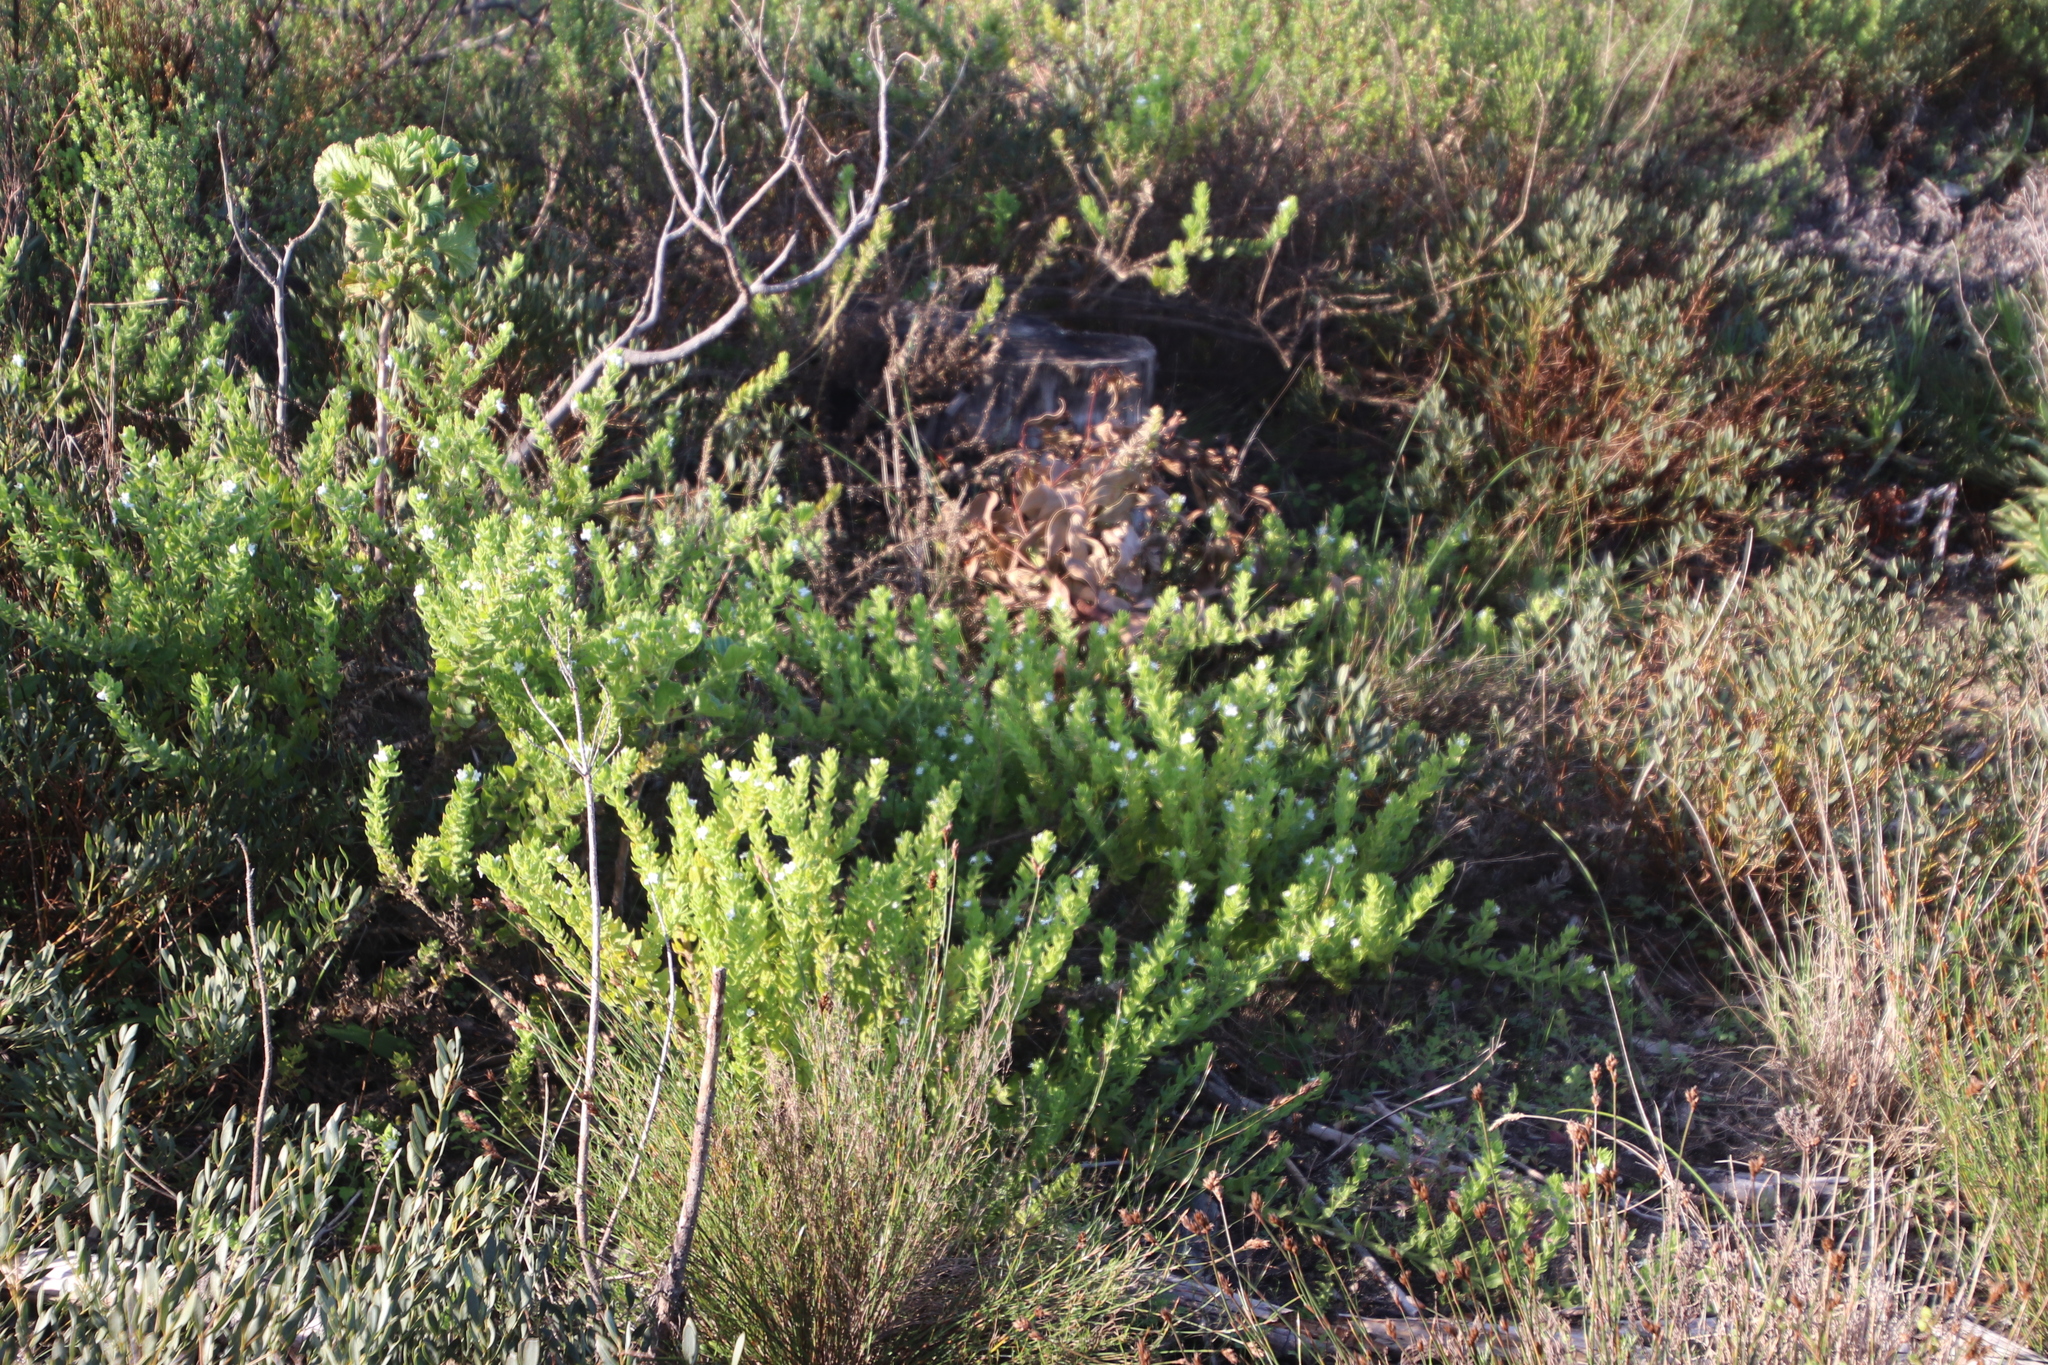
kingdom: Plantae
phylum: Tracheophyta
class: Magnoliopsida
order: Lamiales
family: Scrophulariaceae
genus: Oftia
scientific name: Oftia africana
